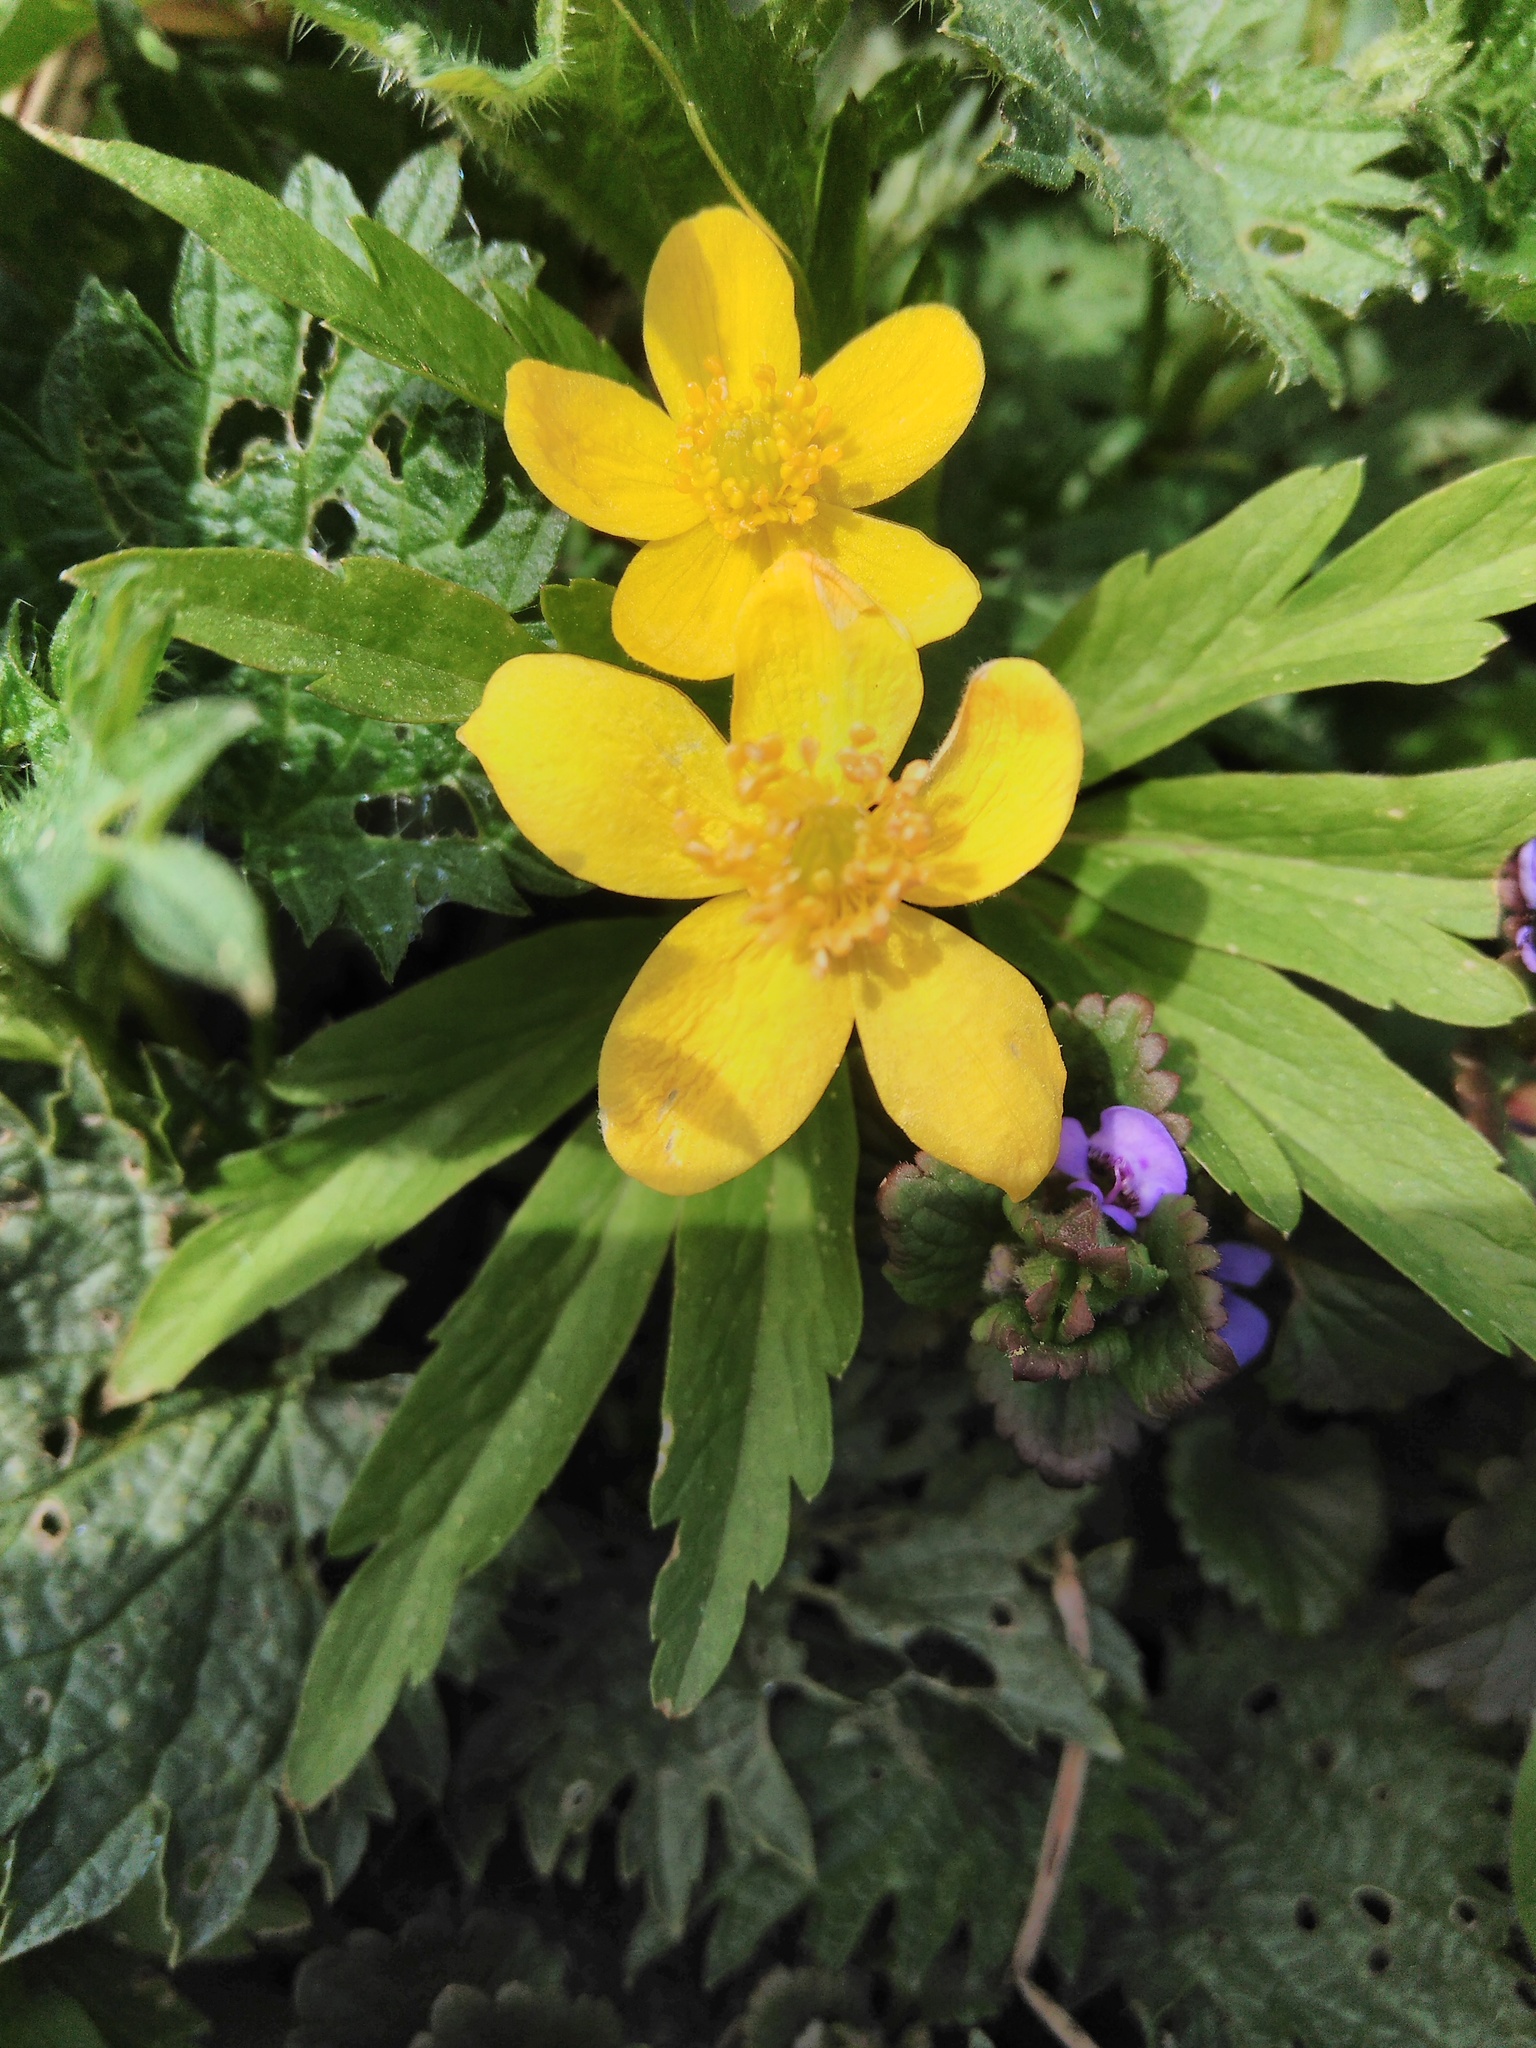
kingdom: Plantae
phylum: Tracheophyta
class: Magnoliopsida
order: Ranunculales
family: Ranunculaceae
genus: Anemone
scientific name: Anemone ranunculoides
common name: Yellow anemone
